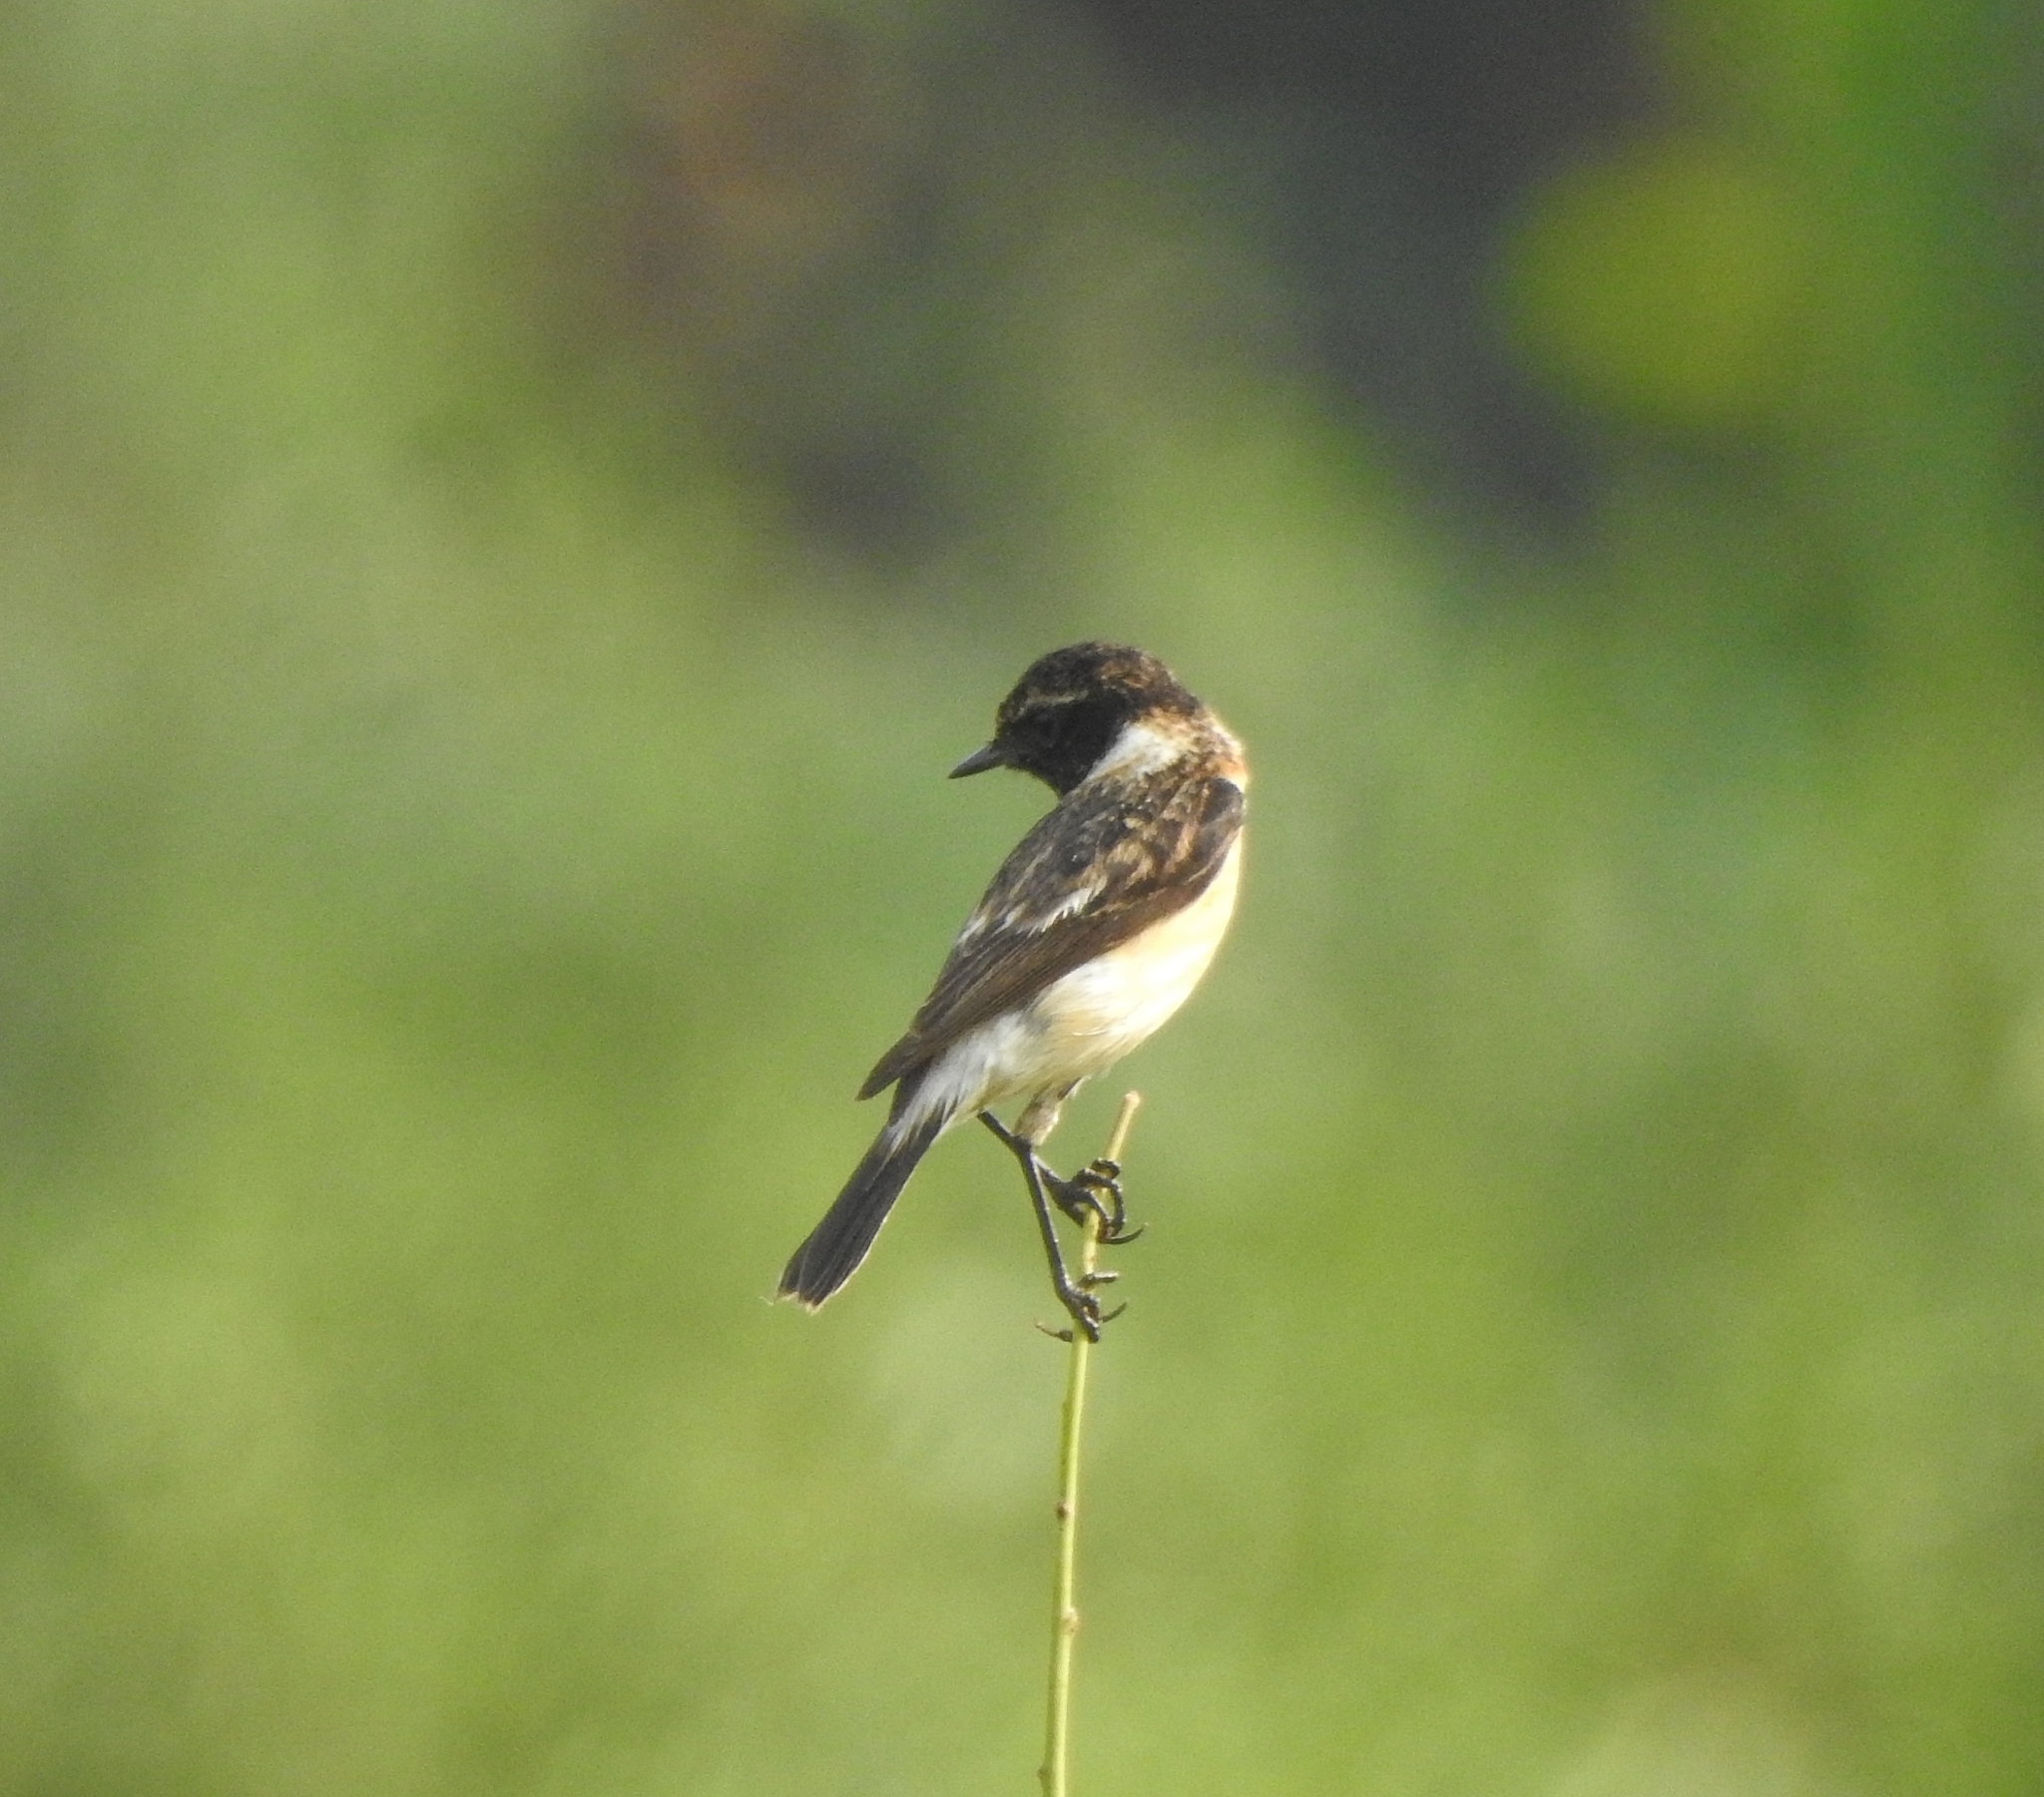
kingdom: Animalia
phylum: Chordata
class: Aves
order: Passeriformes
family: Muscicapidae
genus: Saxicola
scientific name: Saxicola maurus
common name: Siberian stonechat
